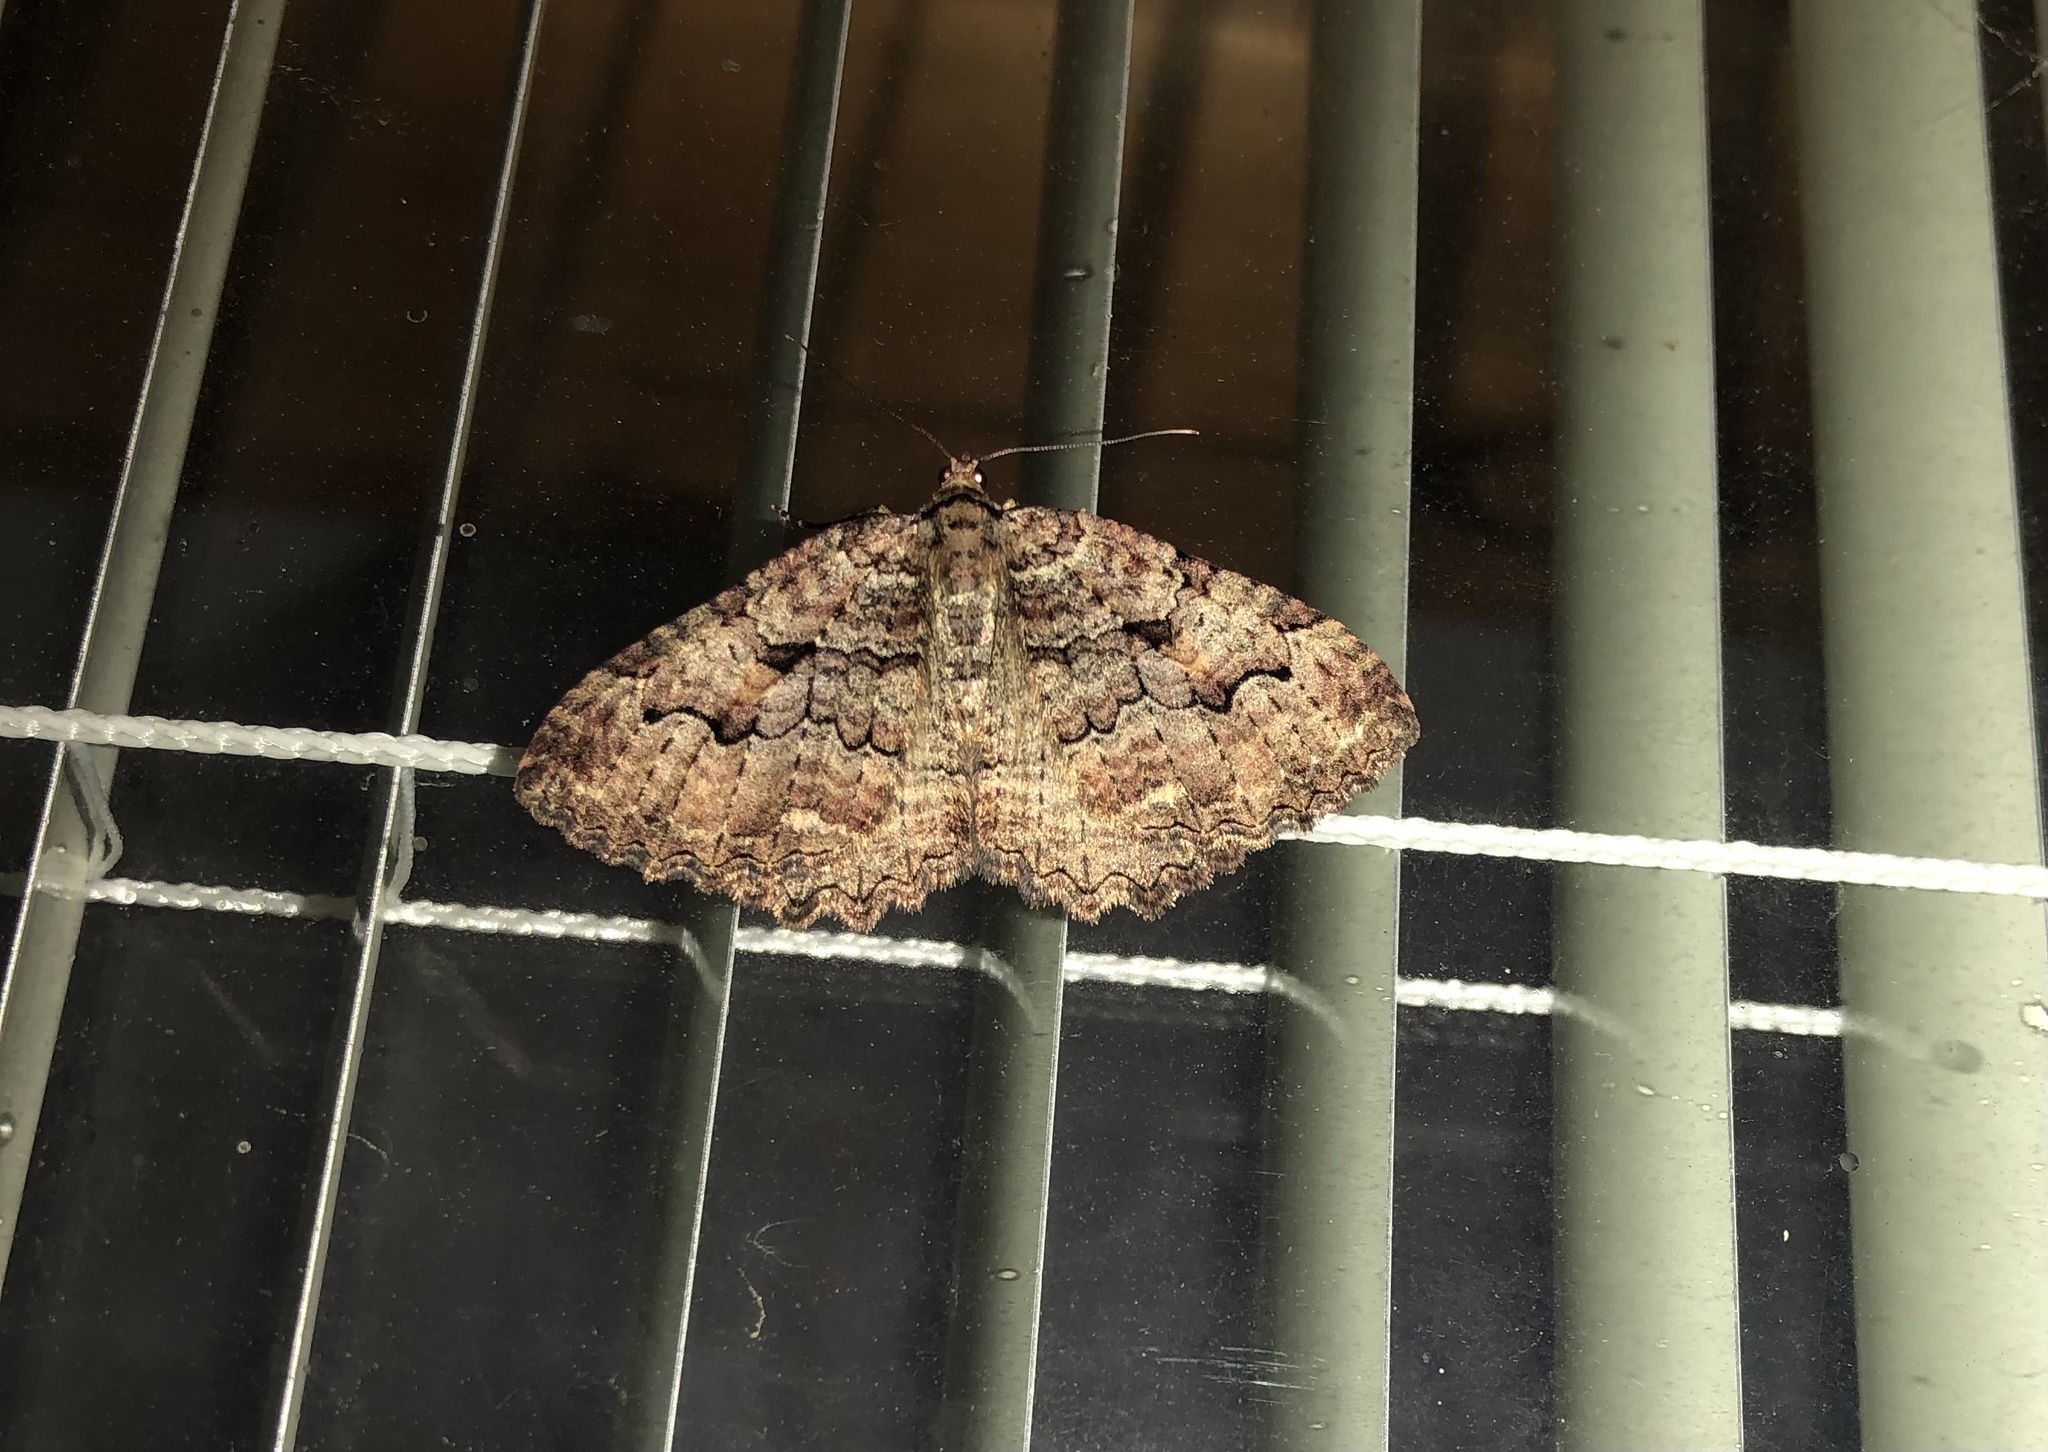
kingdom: Animalia
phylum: Arthropoda
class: Insecta
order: Lepidoptera
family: Geometridae
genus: Triphosa
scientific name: Triphosa haesitata
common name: Tissue moth
